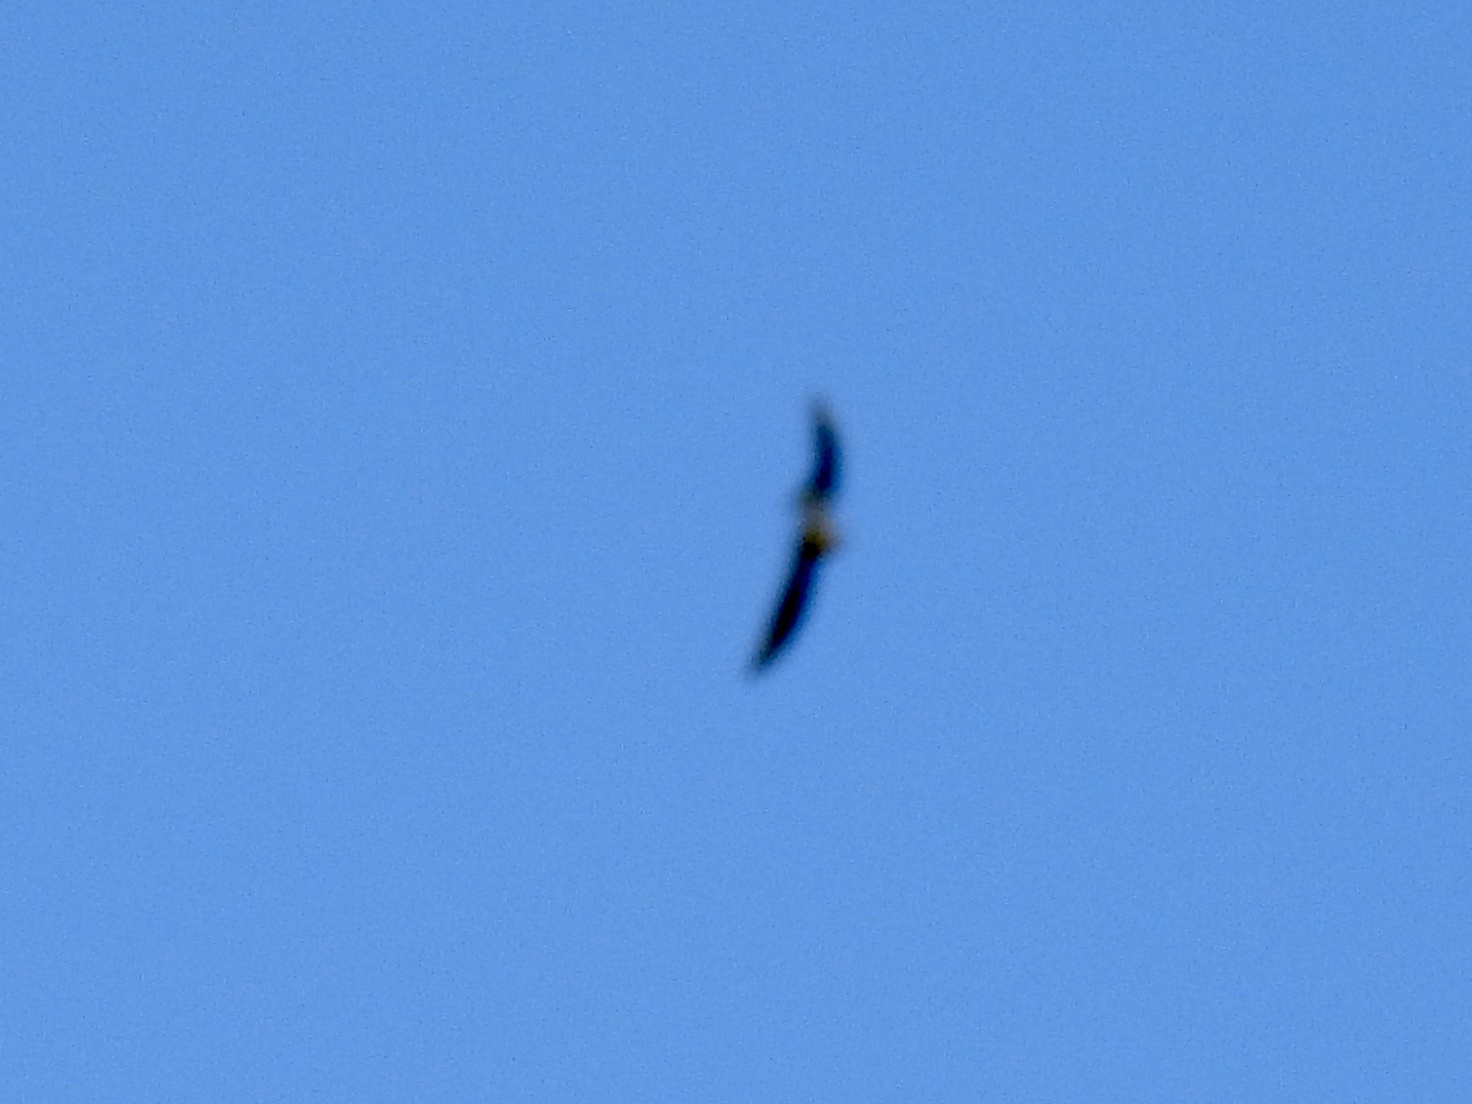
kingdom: Animalia
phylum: Chordata
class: Aves
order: Passeriformes
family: Hirundinidae
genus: Tachycineta
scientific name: Tachycineta thalassina
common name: Violet-green swallow
